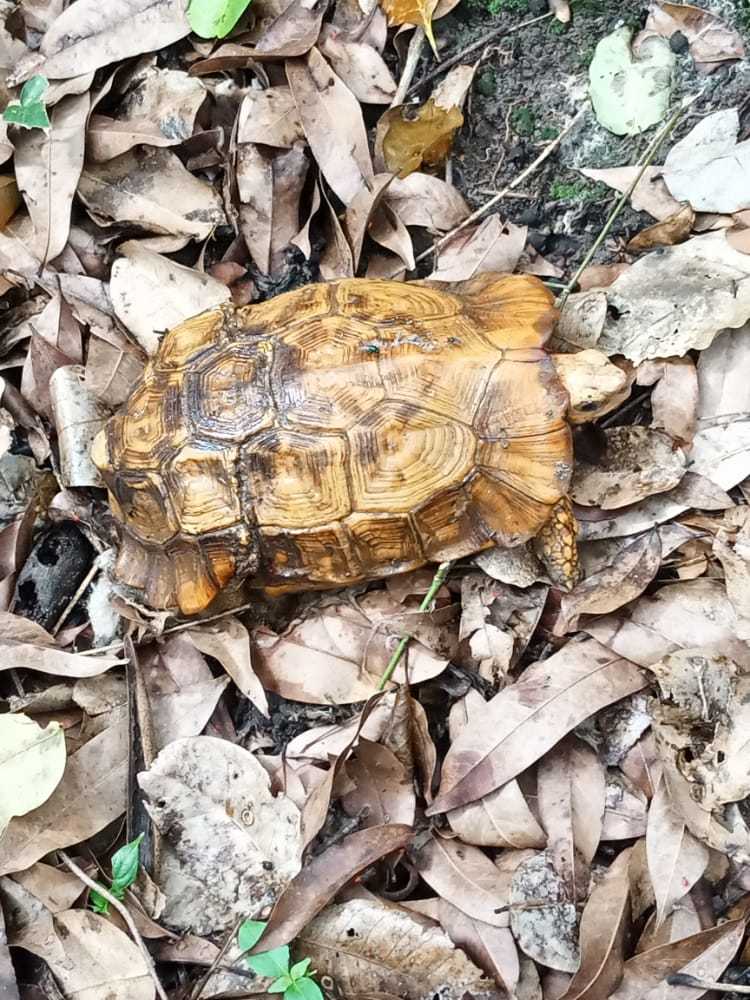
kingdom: Animalia
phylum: Chordata
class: Testudines
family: Testudinidae
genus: Kinixys
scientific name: Kinixys homeana
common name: Home's hingeback tortoise
